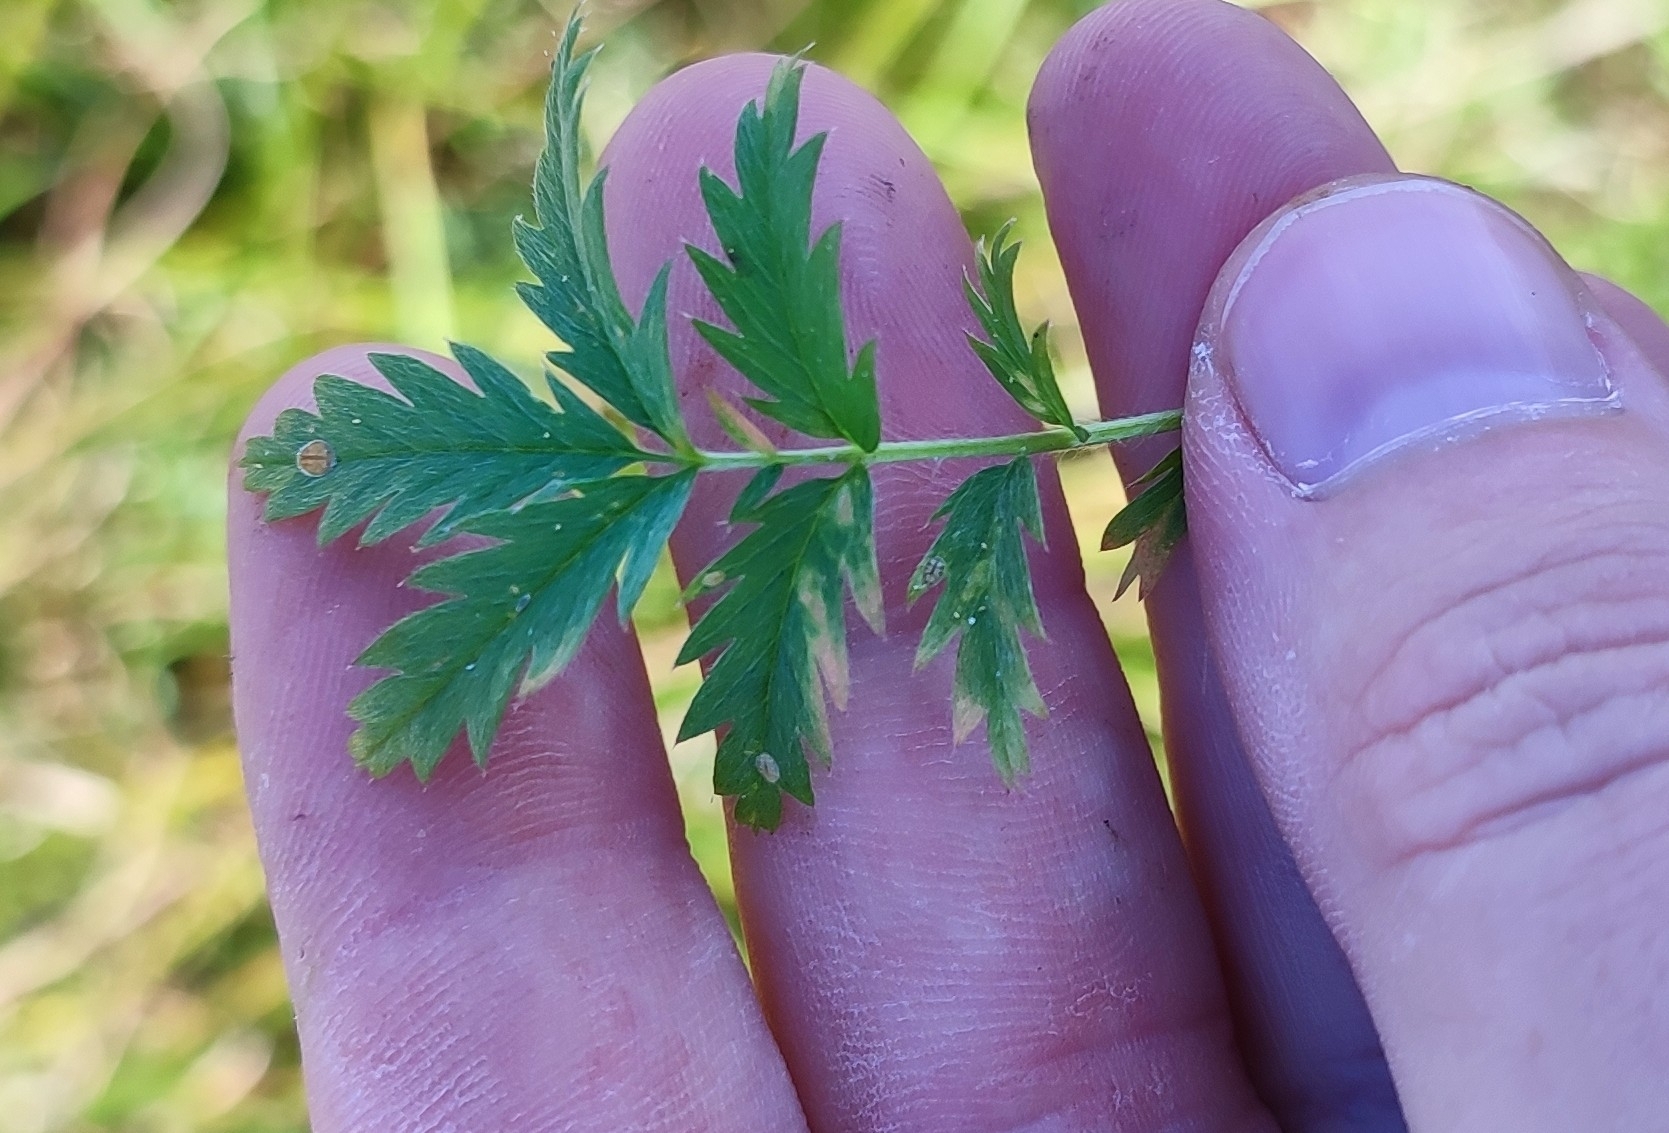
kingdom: Plantae
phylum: Tracheophyta
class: Magnoliopsida
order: Rosales
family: Rosaceae
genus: Argentina
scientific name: Argentina anserina
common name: Common silverweed
